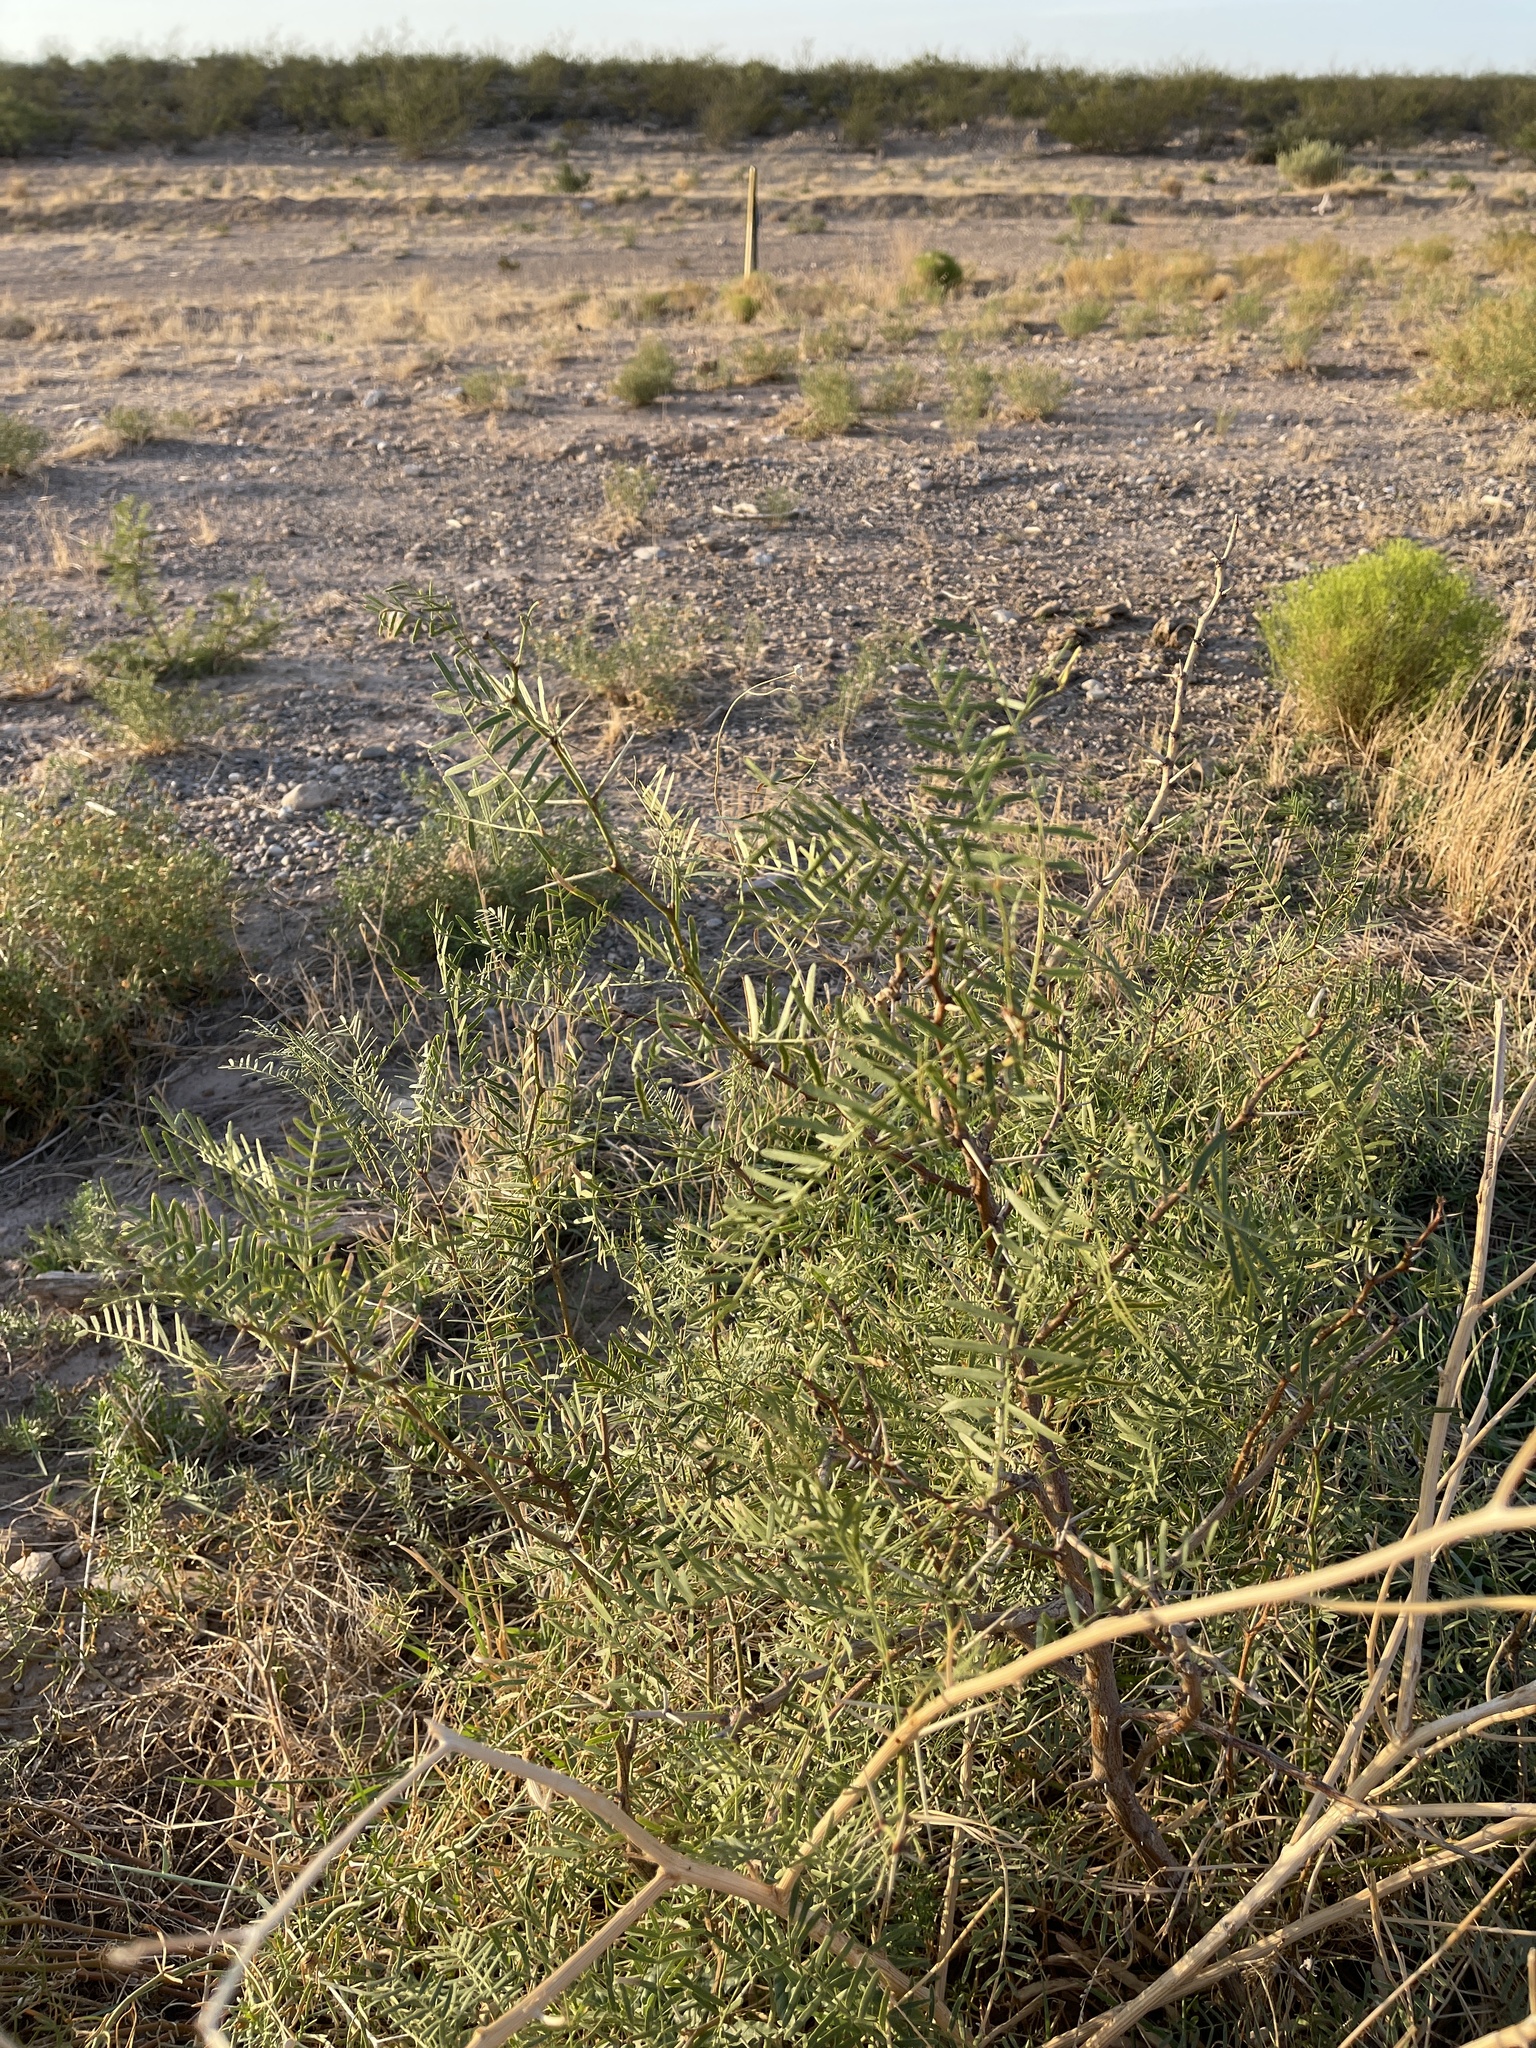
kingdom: Plantae
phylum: Tracheophyta
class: Magnoliopsida
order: Fabales
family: Fabaceae
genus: Prosopis
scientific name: Prosopis glandulosa
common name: Honey mesquite
